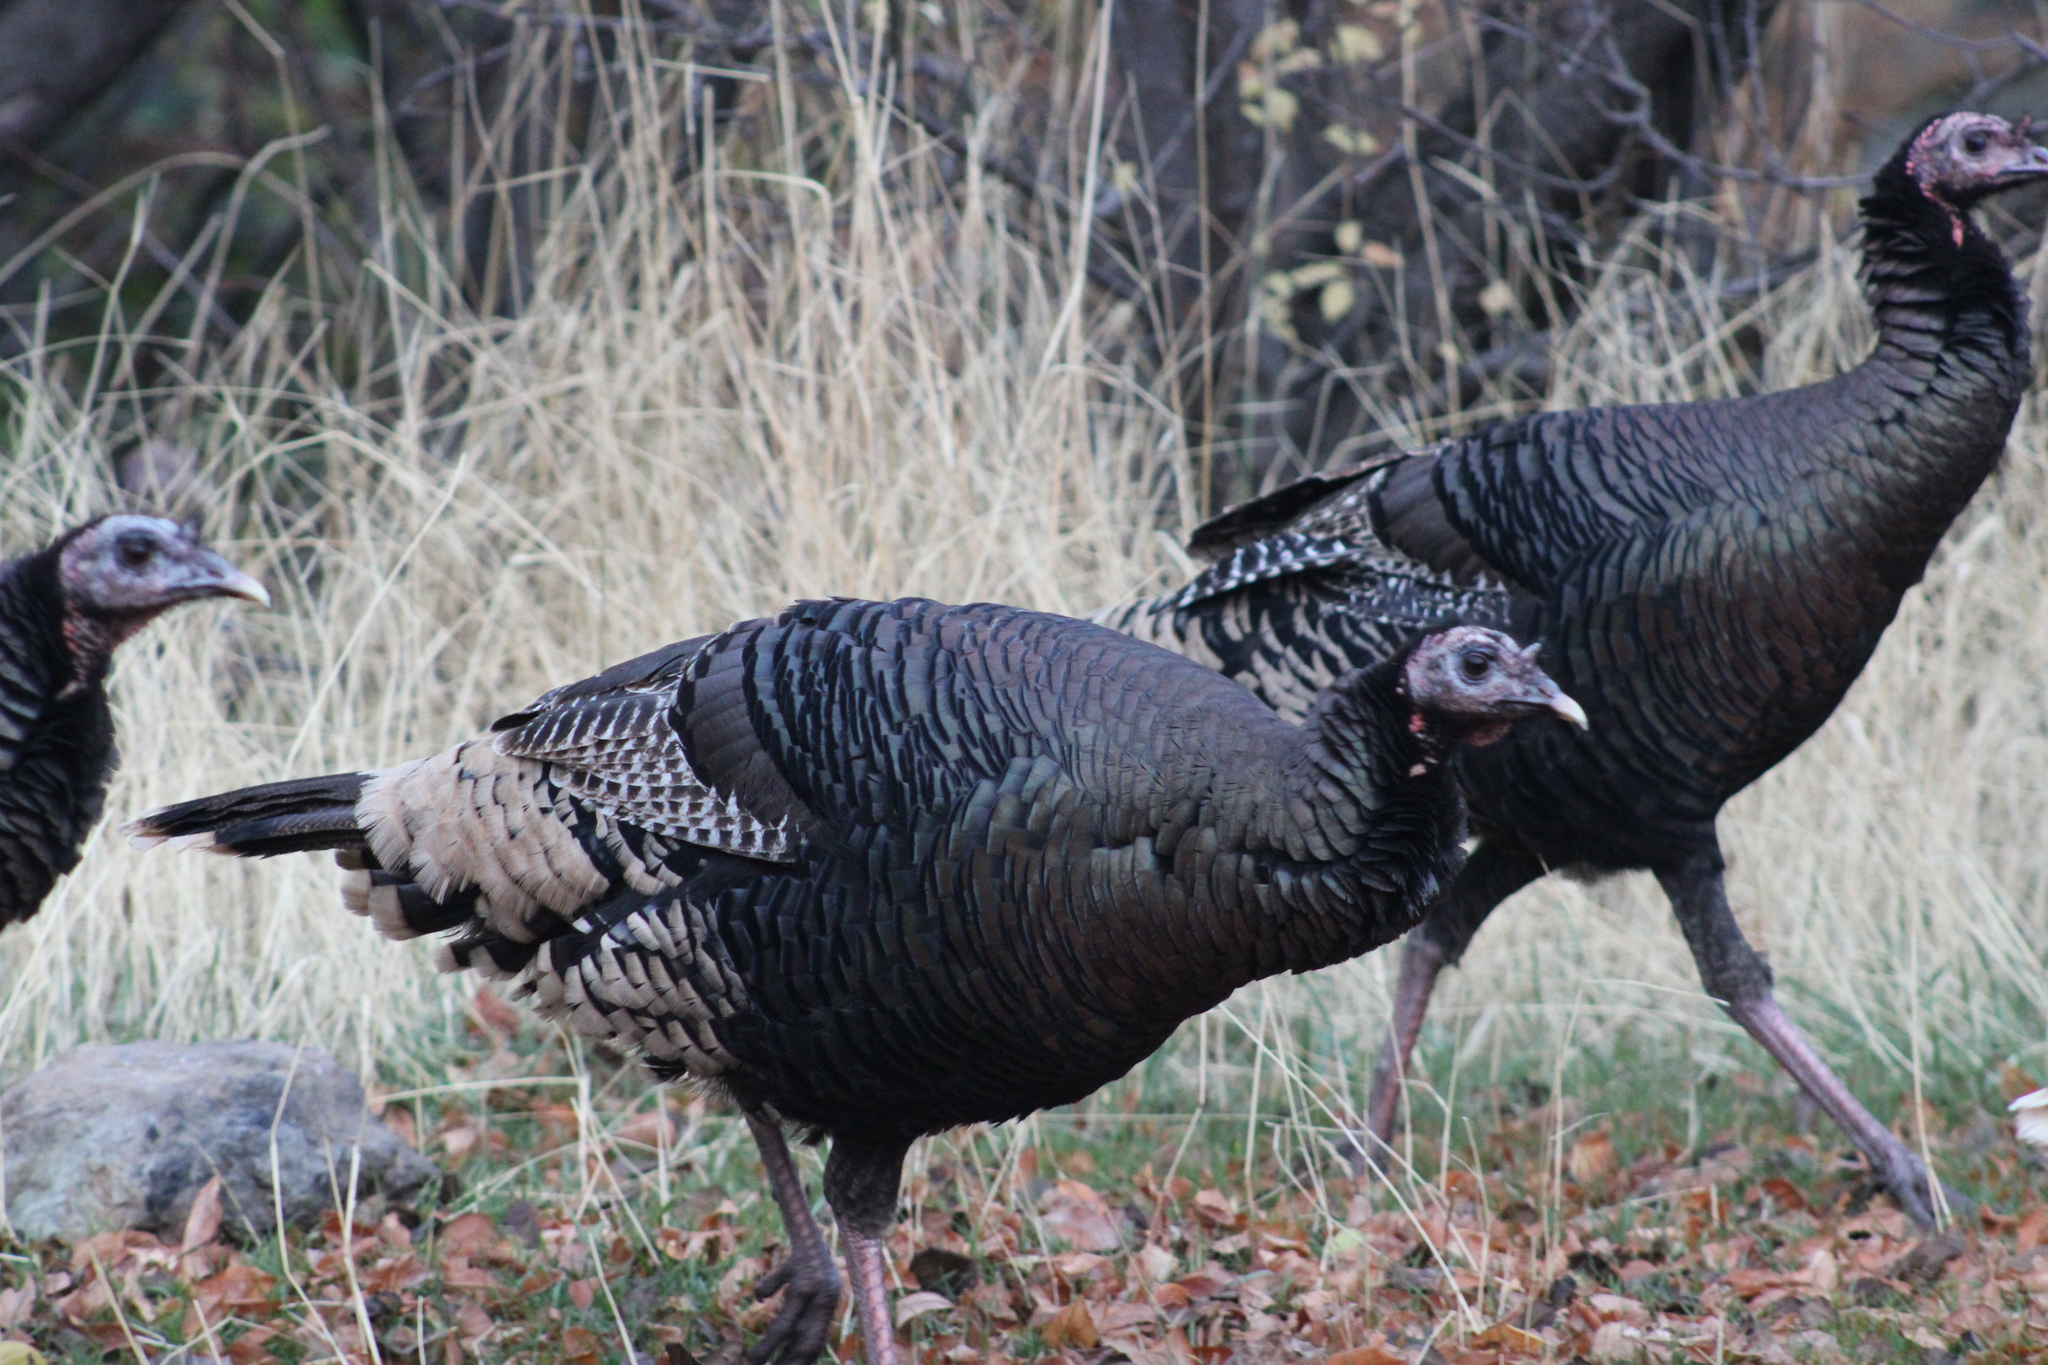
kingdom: Animalia
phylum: Chordata
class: Aves
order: Galliformes
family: Phasianidae
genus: Meleagris
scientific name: Meleagris gallopavo
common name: Wild turkey
